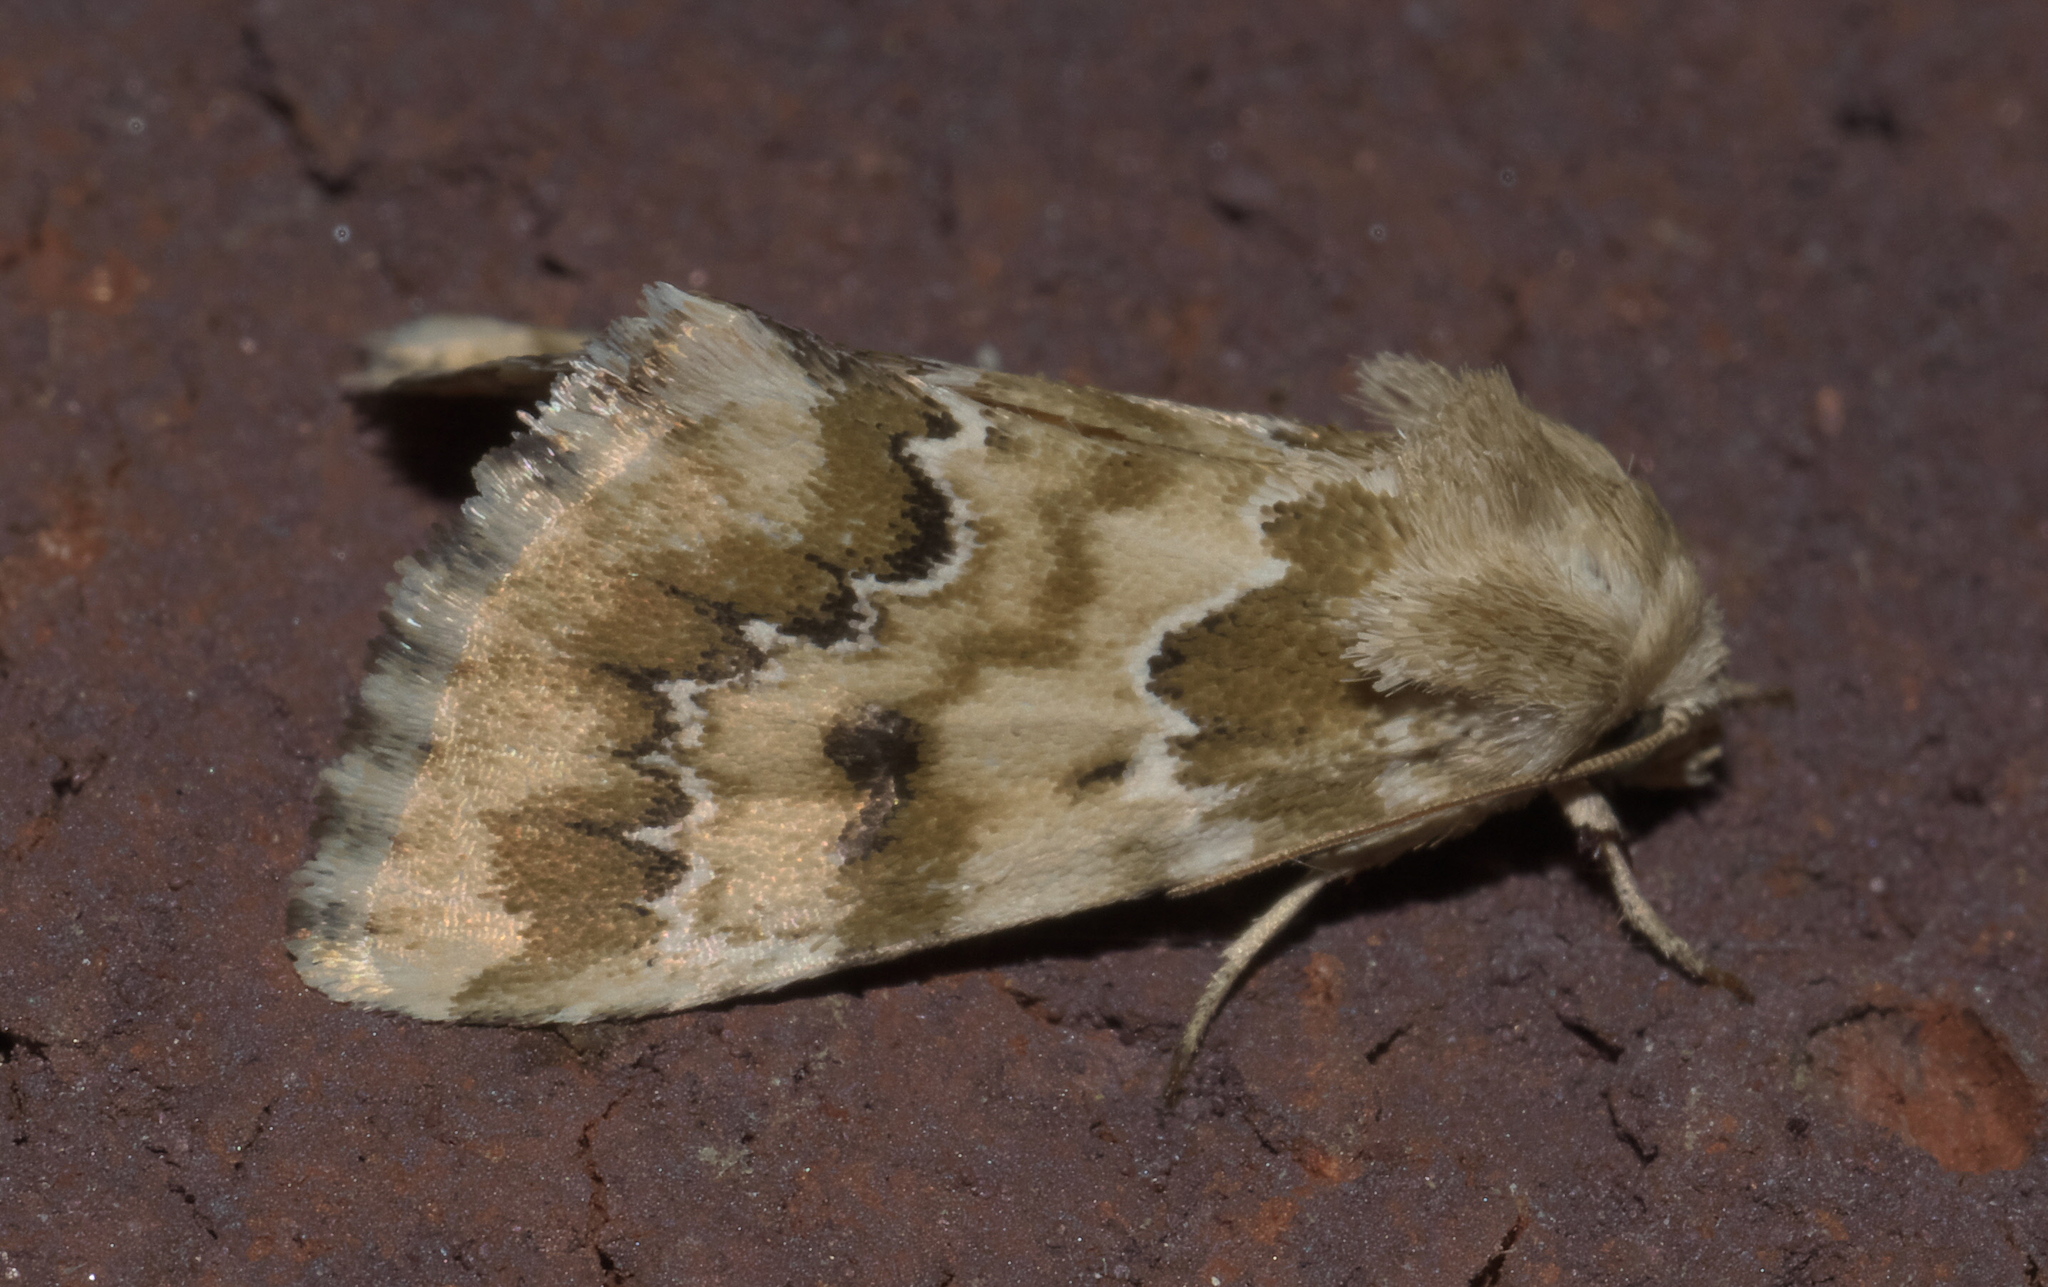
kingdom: Animalia
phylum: Arthropoda
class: Insecta
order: Lepidoptera
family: Noctuidae
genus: Schinia
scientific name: Schinia crenilinea
